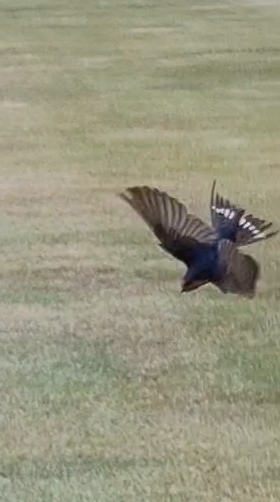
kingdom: Animalia
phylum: Chordata
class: Aves
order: Passeriformes
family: Hirundinidae
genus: Hirundo
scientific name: Hirundo neoxena
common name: Welcome swallow
